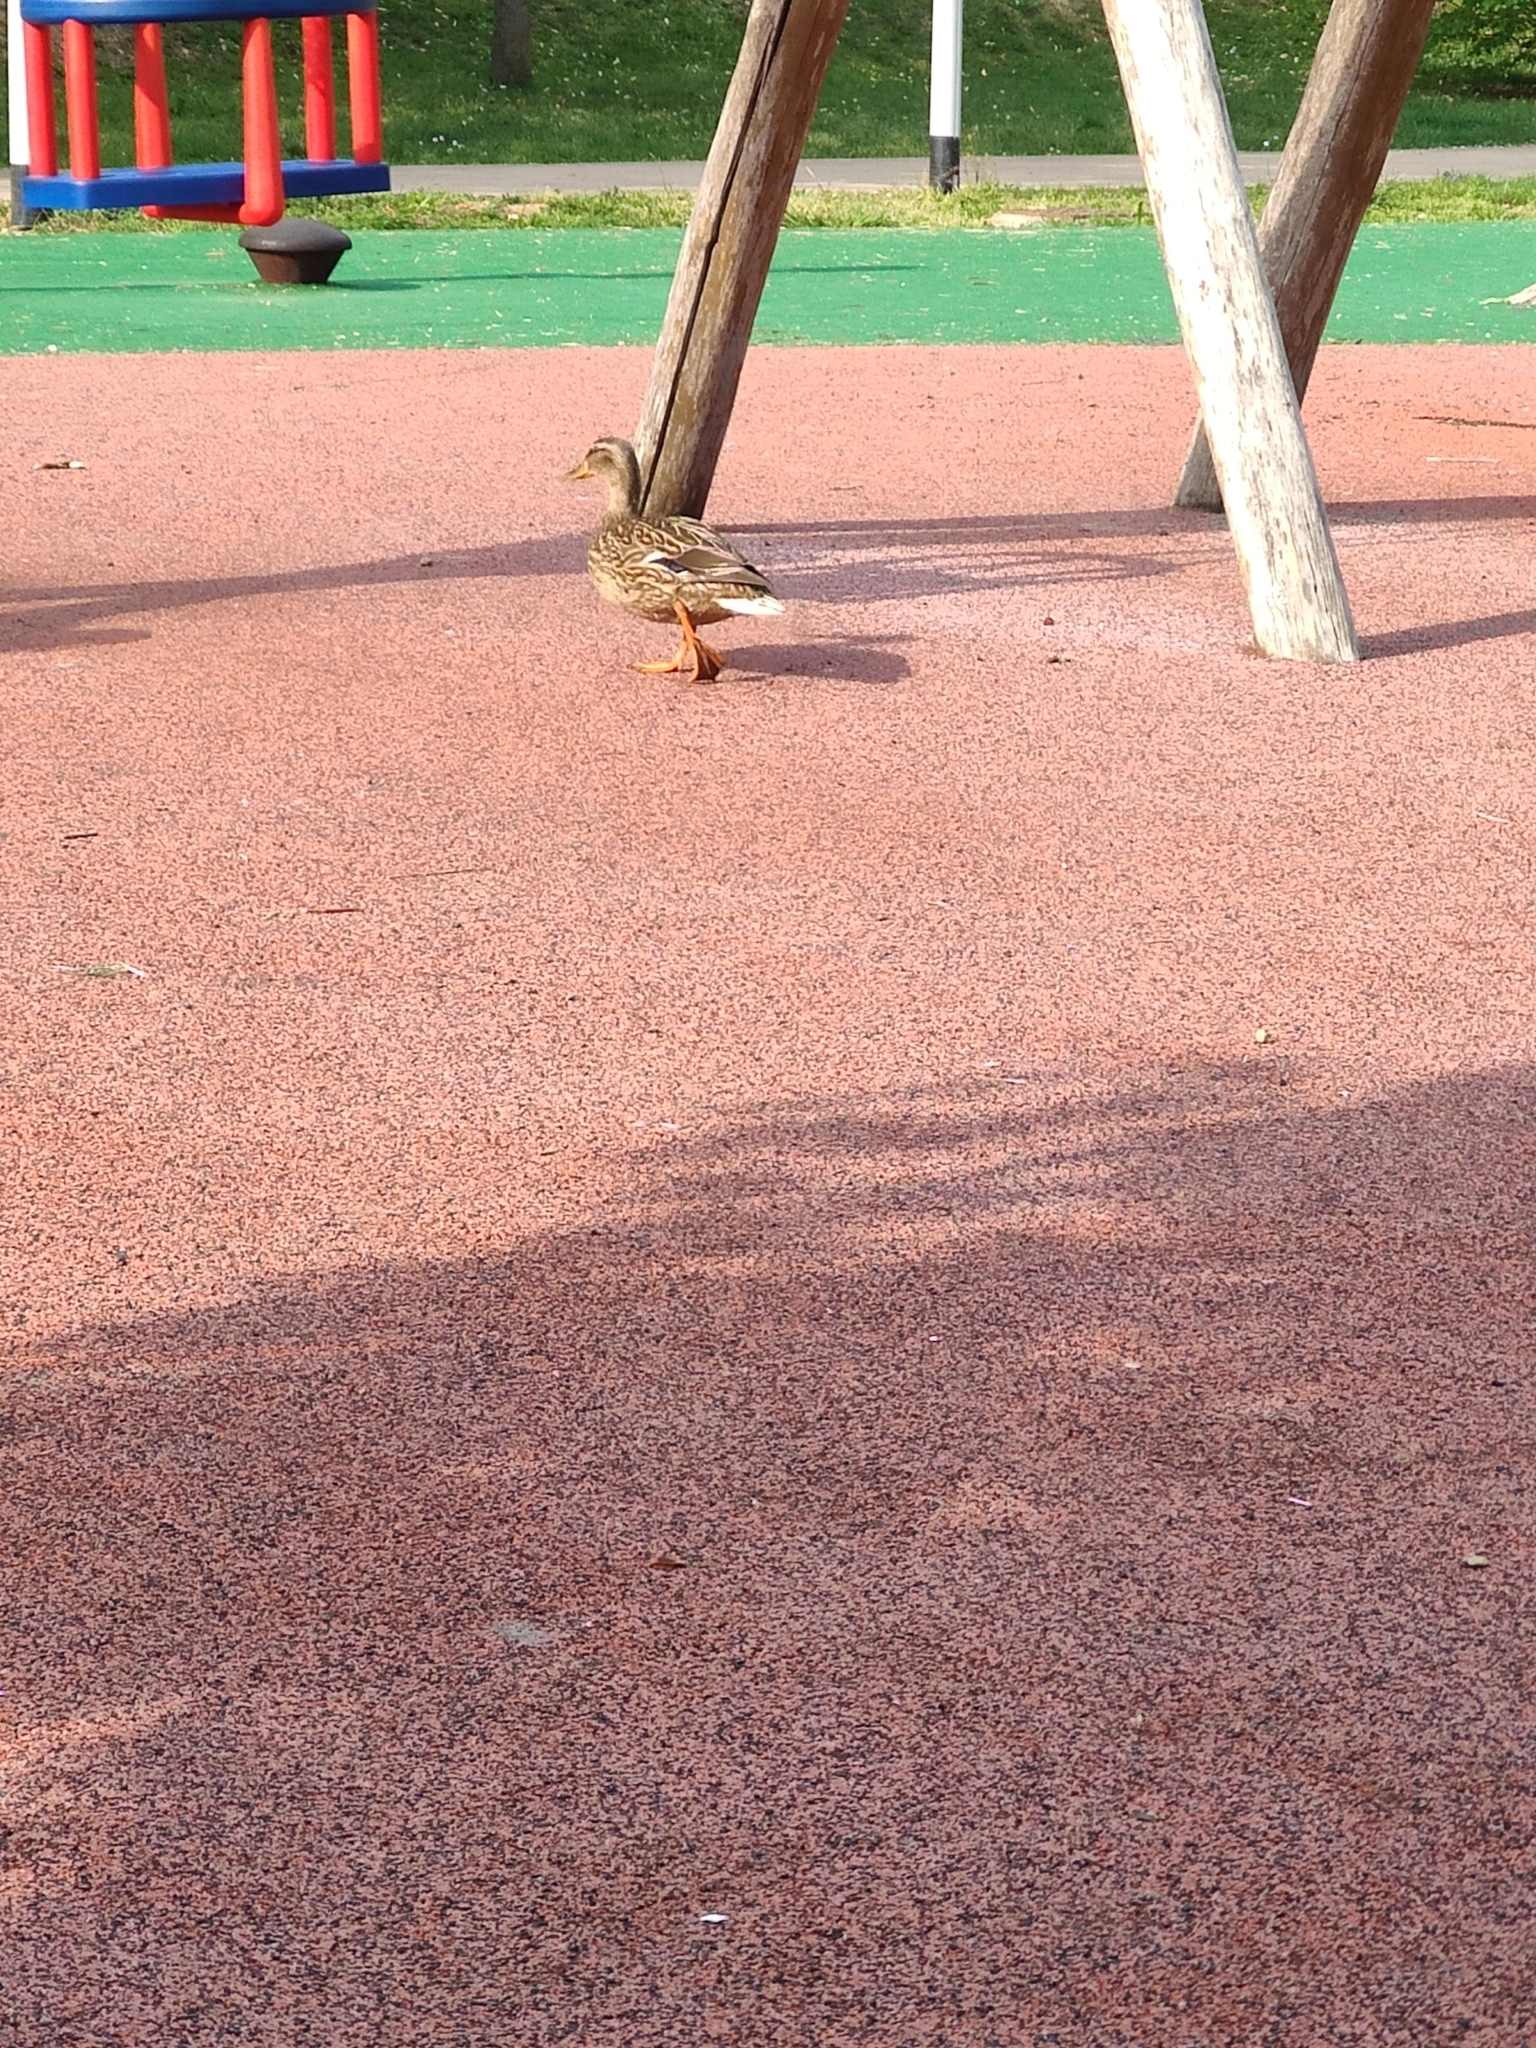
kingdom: Animalia
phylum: Chordata
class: Aves
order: Anseriformes
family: Anatidae
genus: Anas
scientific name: Anas platyrhynchos
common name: Mallard
